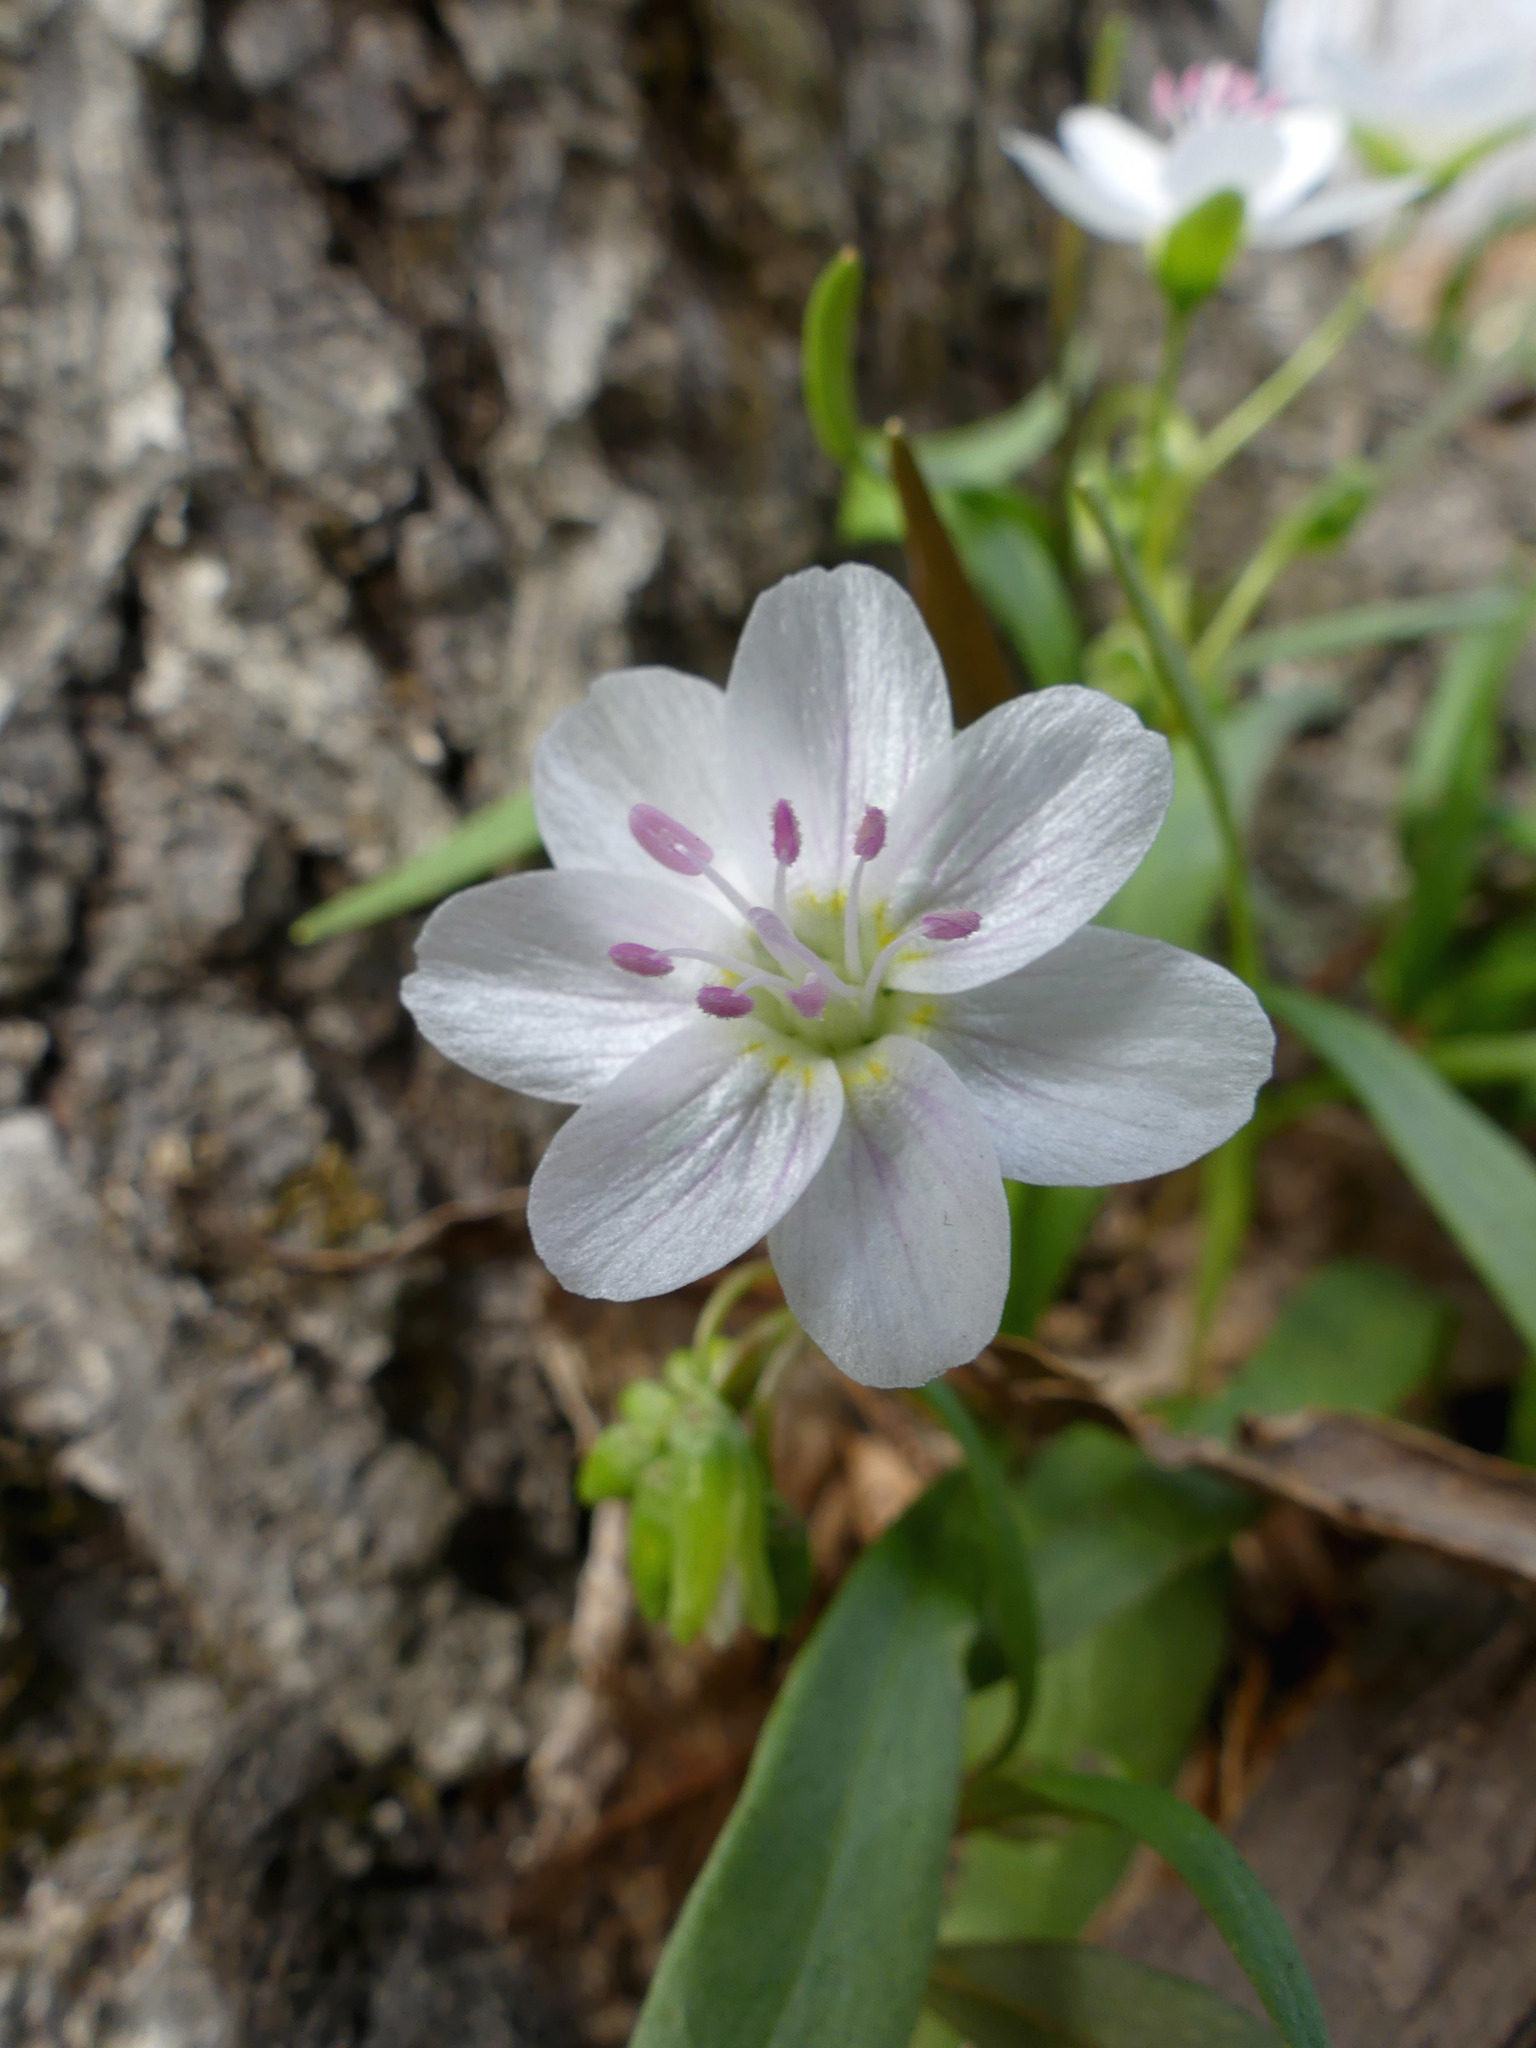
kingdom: Plantae
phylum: Tracheophyta
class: Magnoliopsida
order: Caryophyllales
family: Montiaceae
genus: Claytonia
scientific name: Claytonia virginica
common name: Virginia springbeauty
